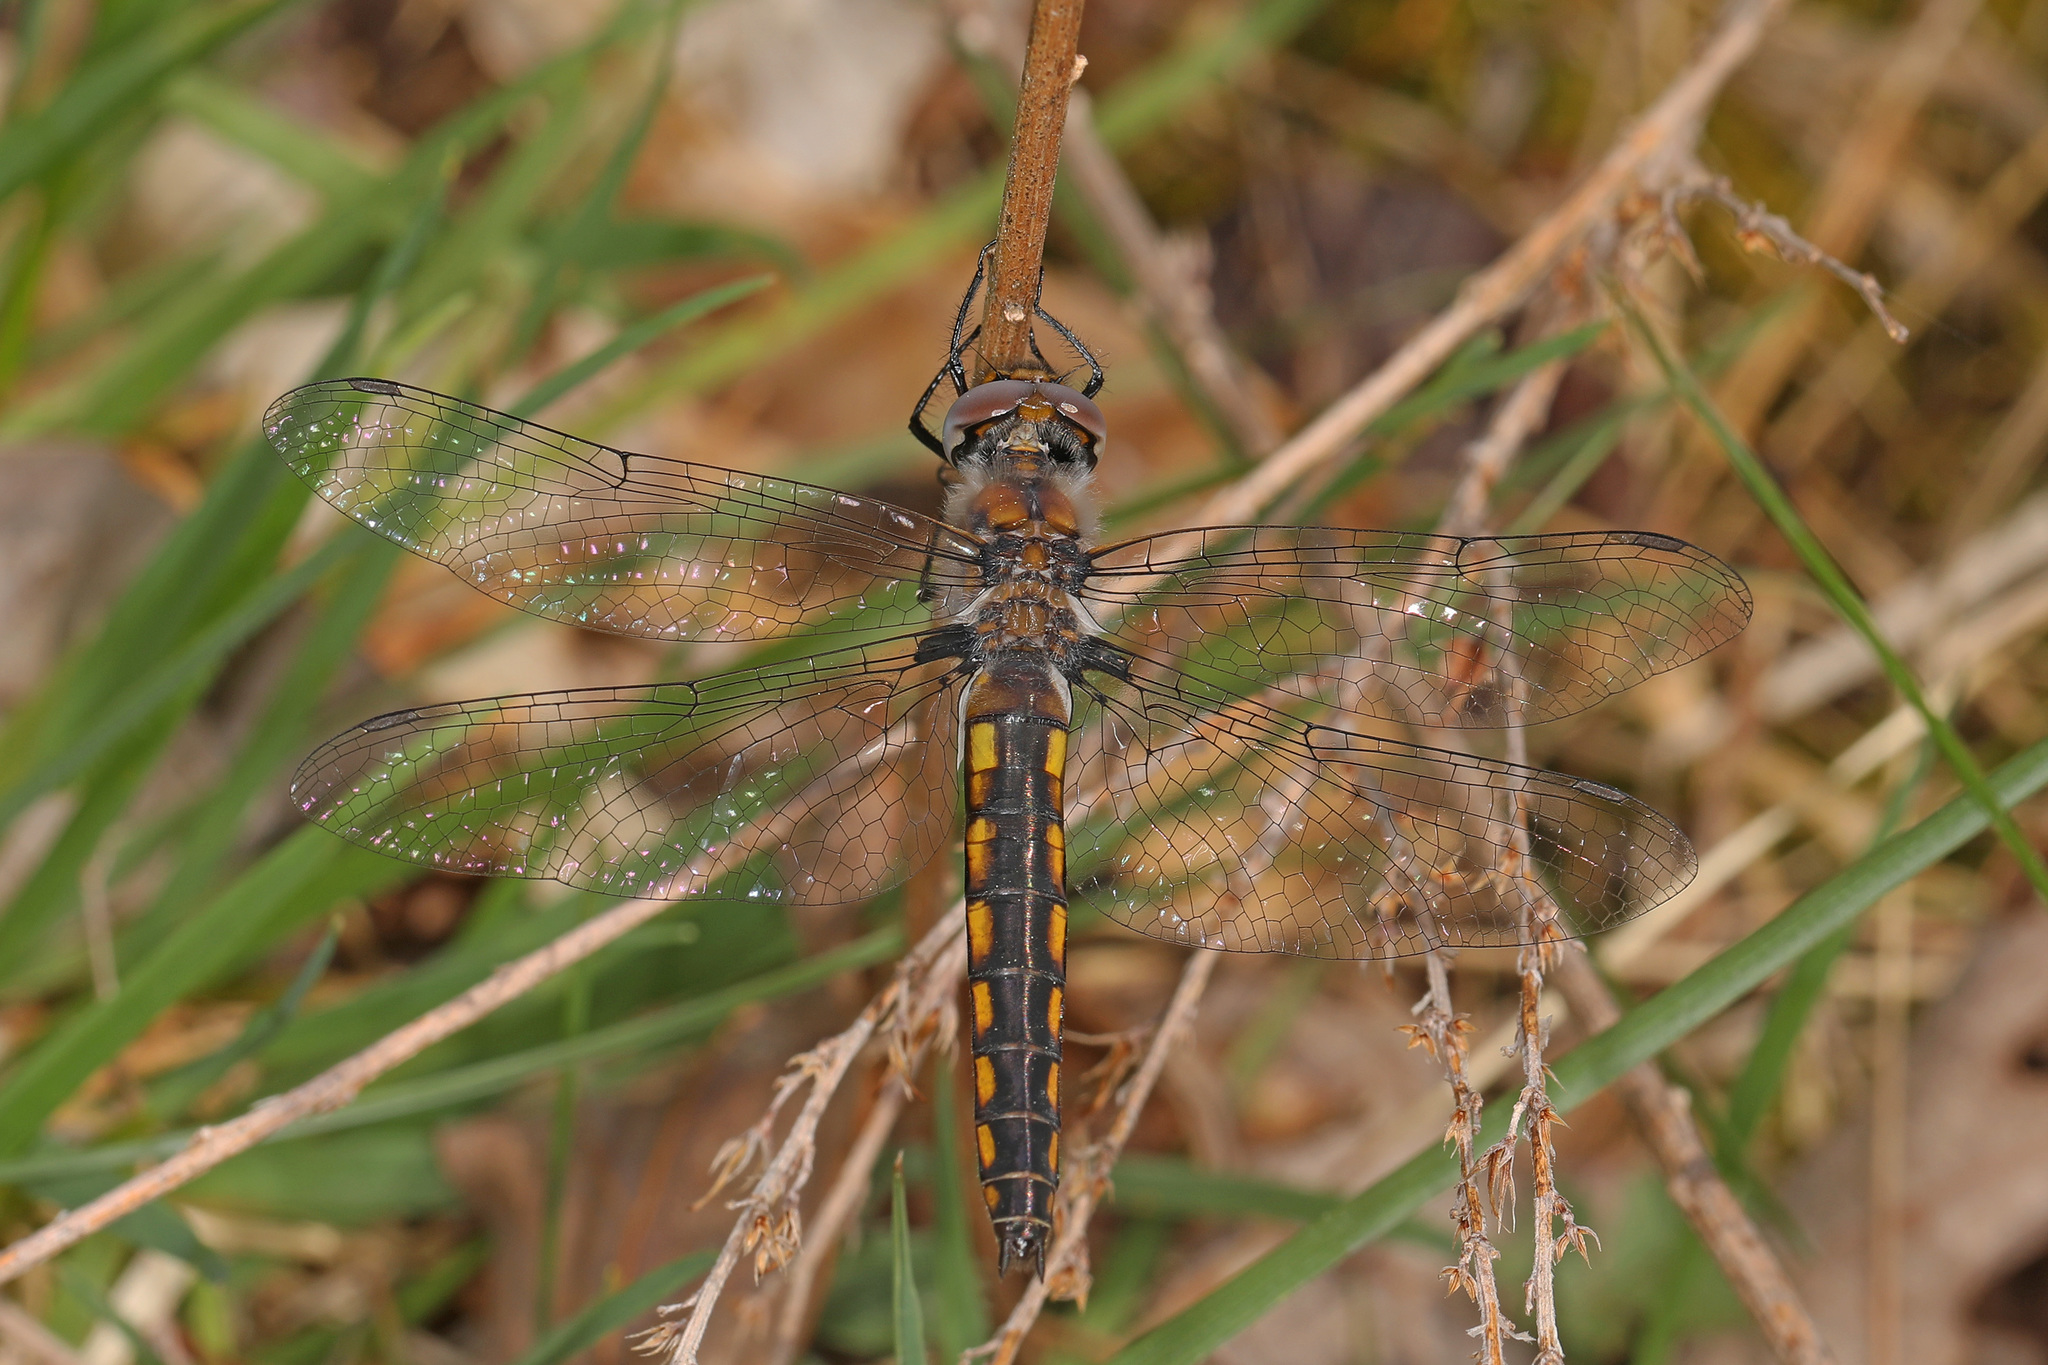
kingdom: Animalia
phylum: Arthropoda
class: Insecta
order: Odonata
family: Corduliidae
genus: Epitheca
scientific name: Epitheca cynosura
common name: Common baskettail
